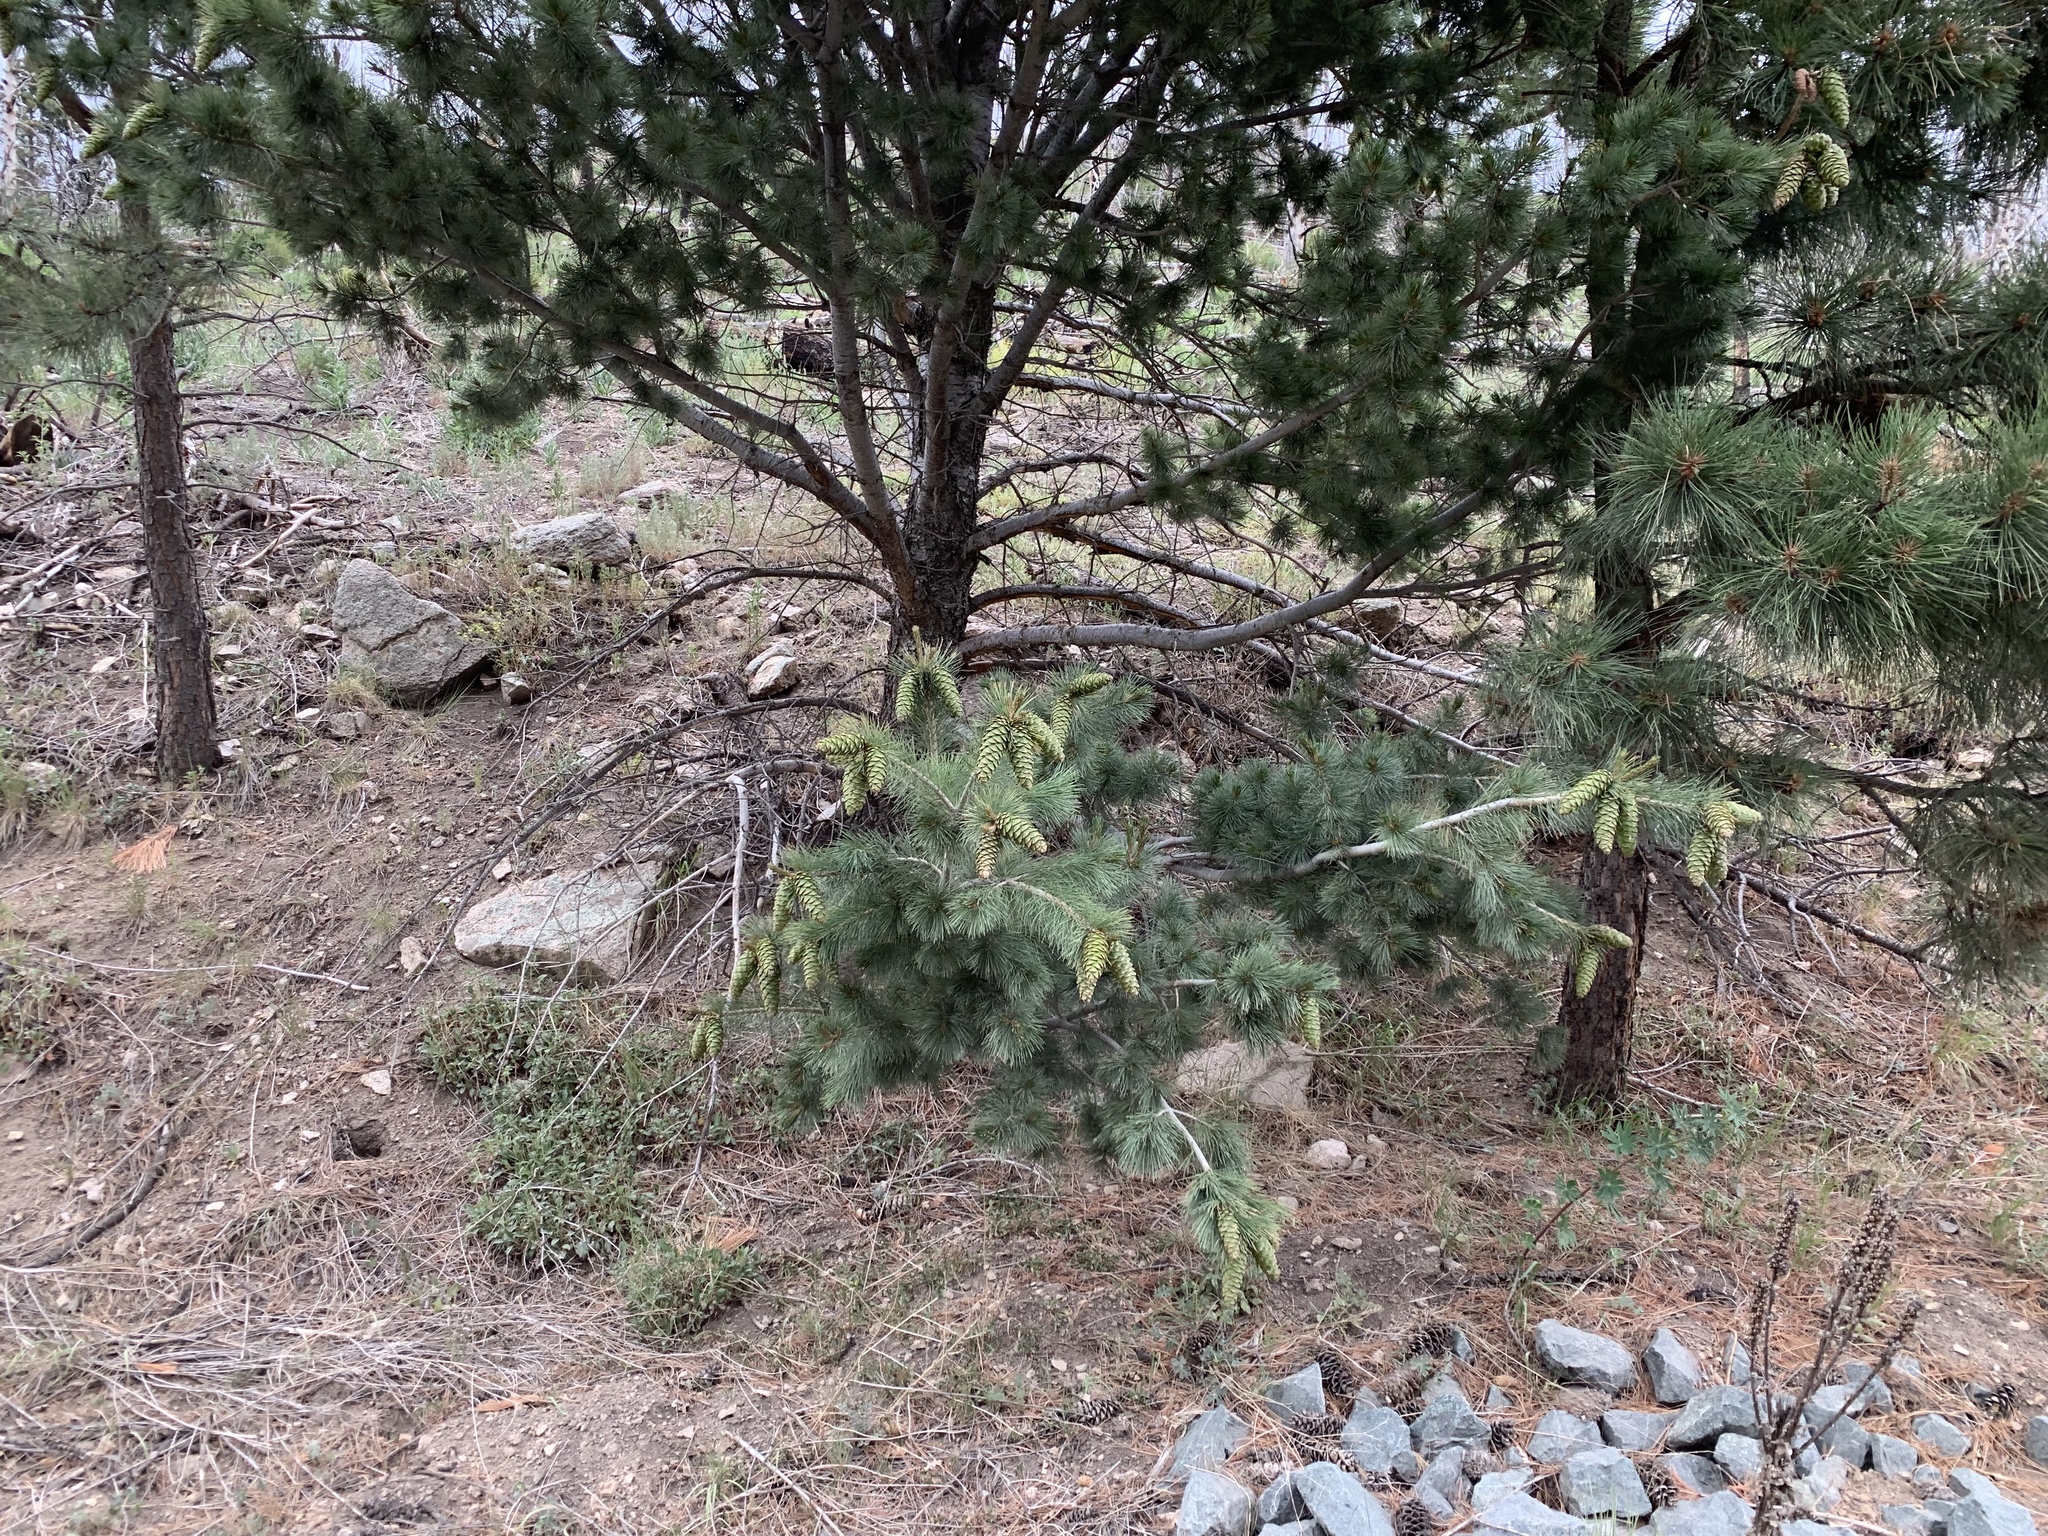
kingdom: Plantae
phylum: Tracheophyta
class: Pinopsida
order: Pinales
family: Pinaceae
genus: Pinus
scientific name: Pinus strobiformis
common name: Southwestern white pine
